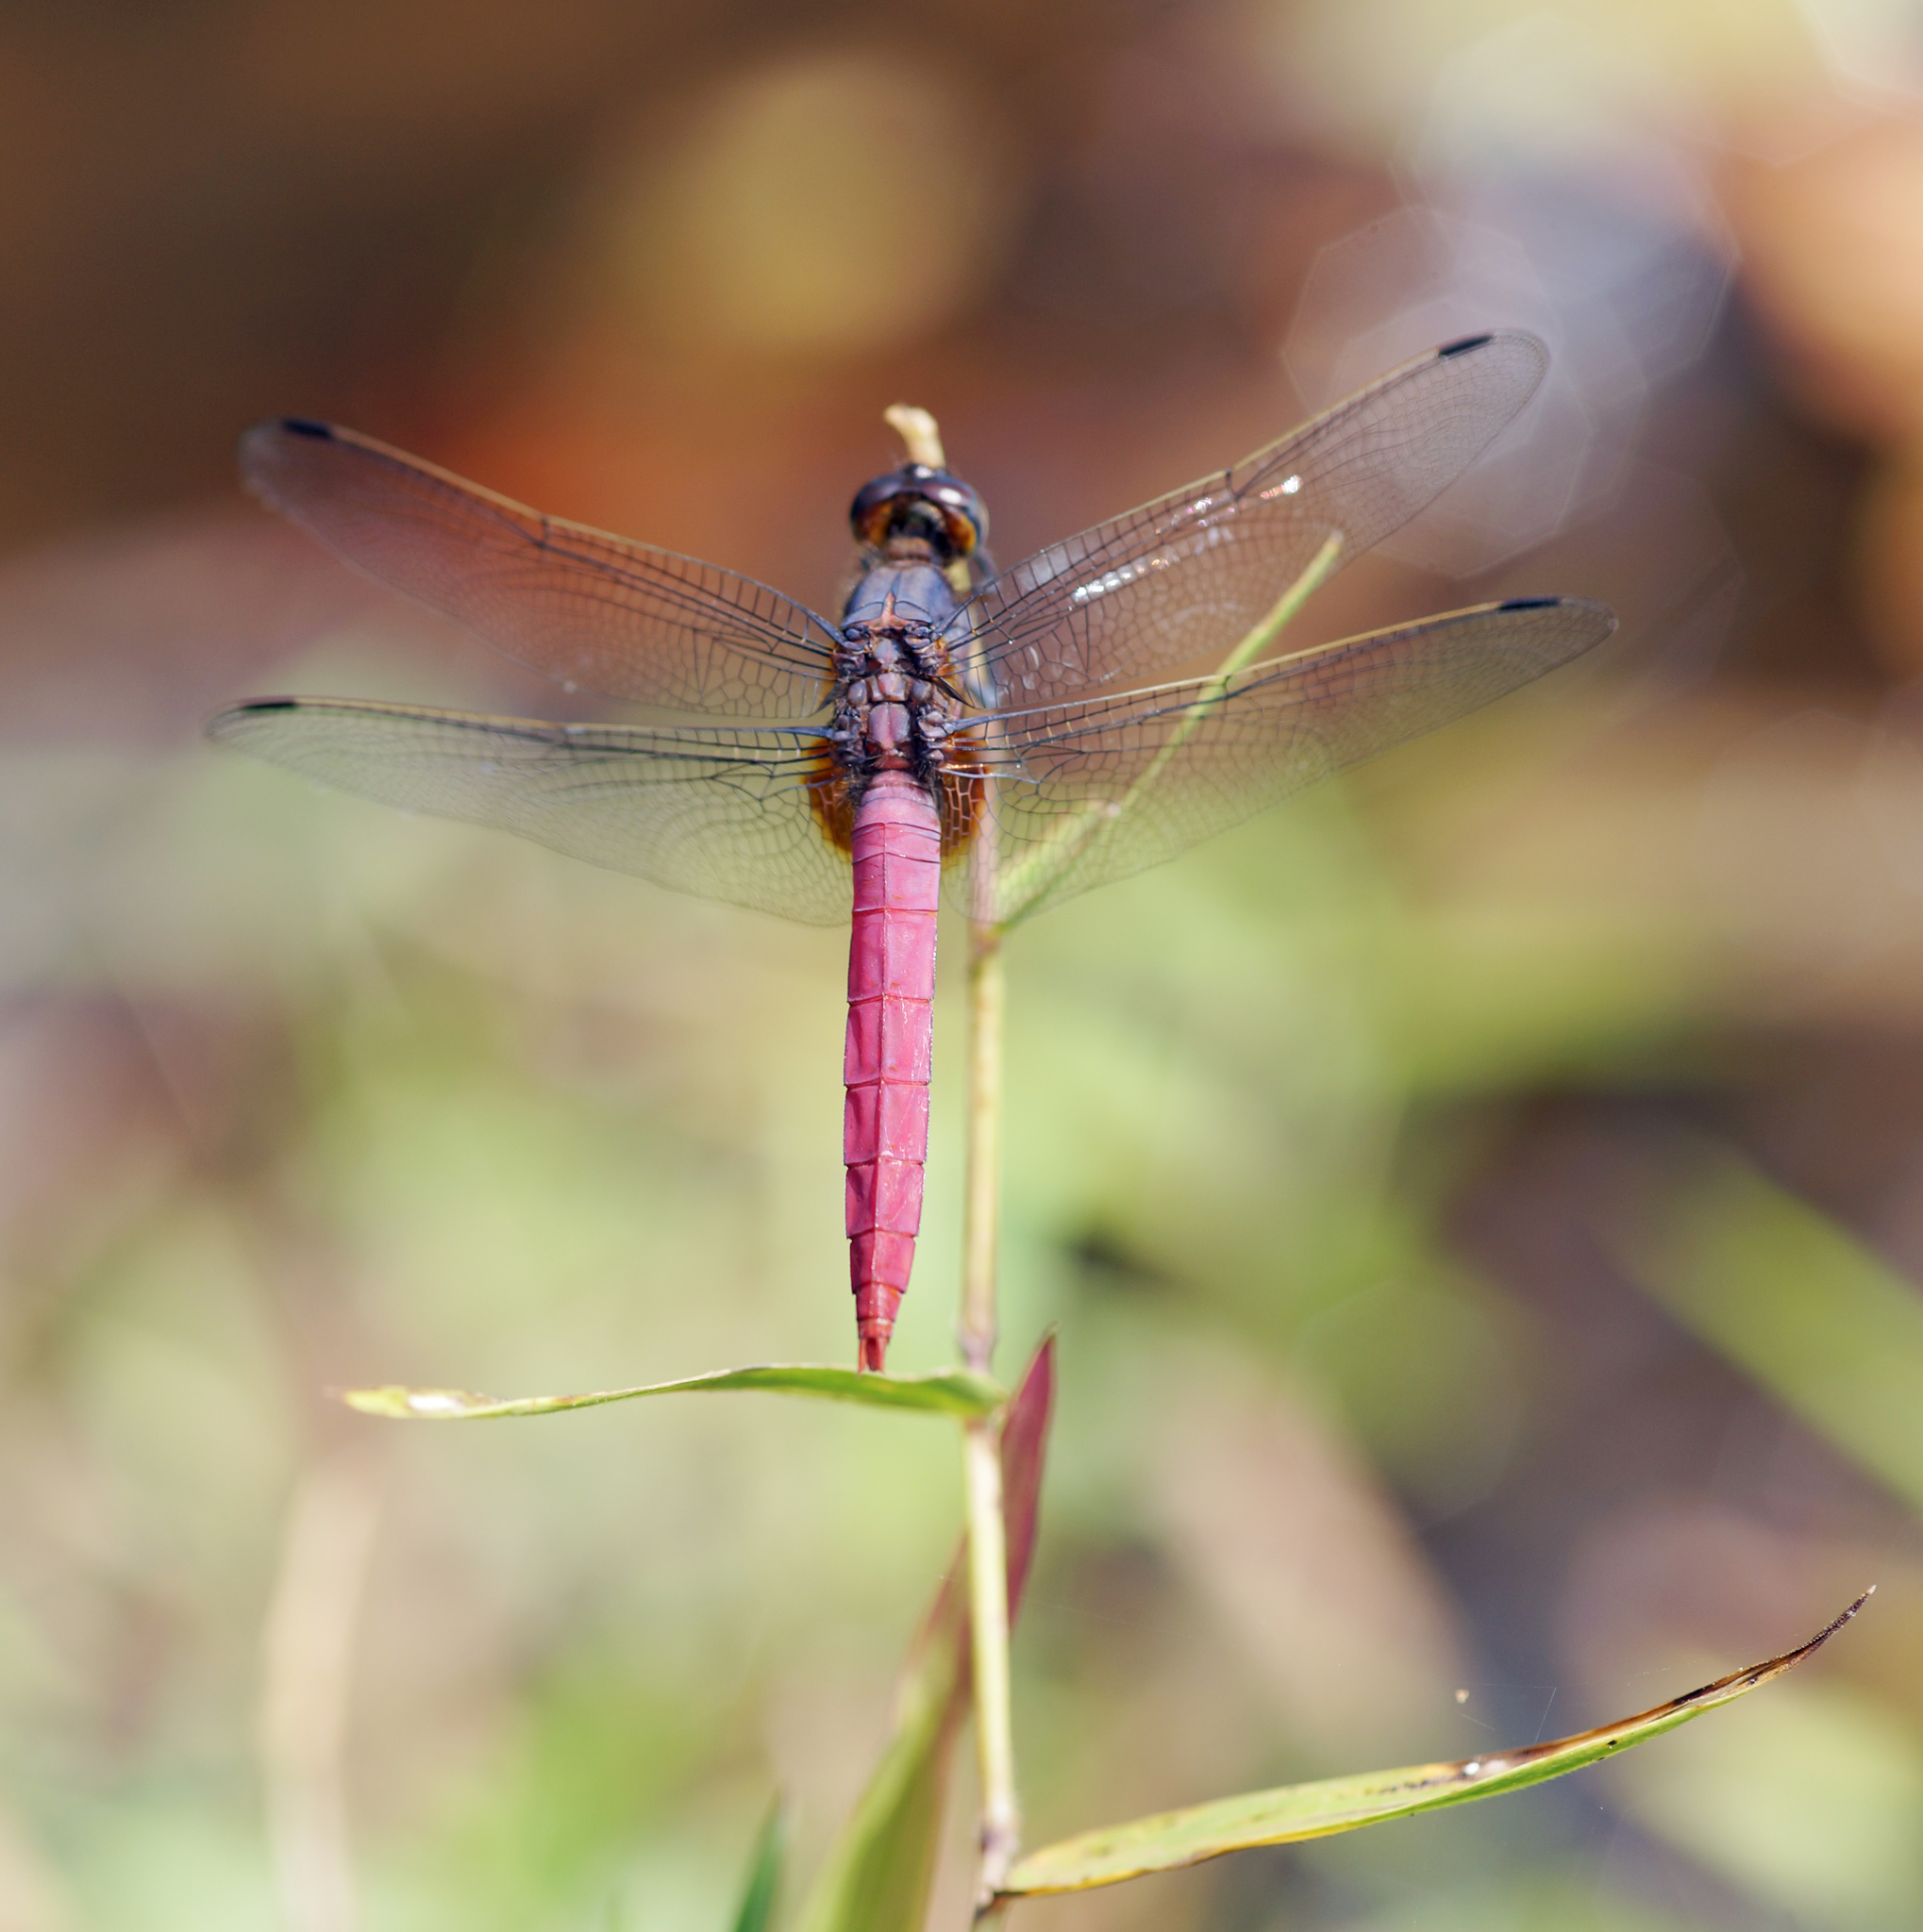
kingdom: Animalia
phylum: Arthropoda
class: Insecta
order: Odonata
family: Libellulidae
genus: Orthetrum
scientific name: Orthetrum pruinosum
